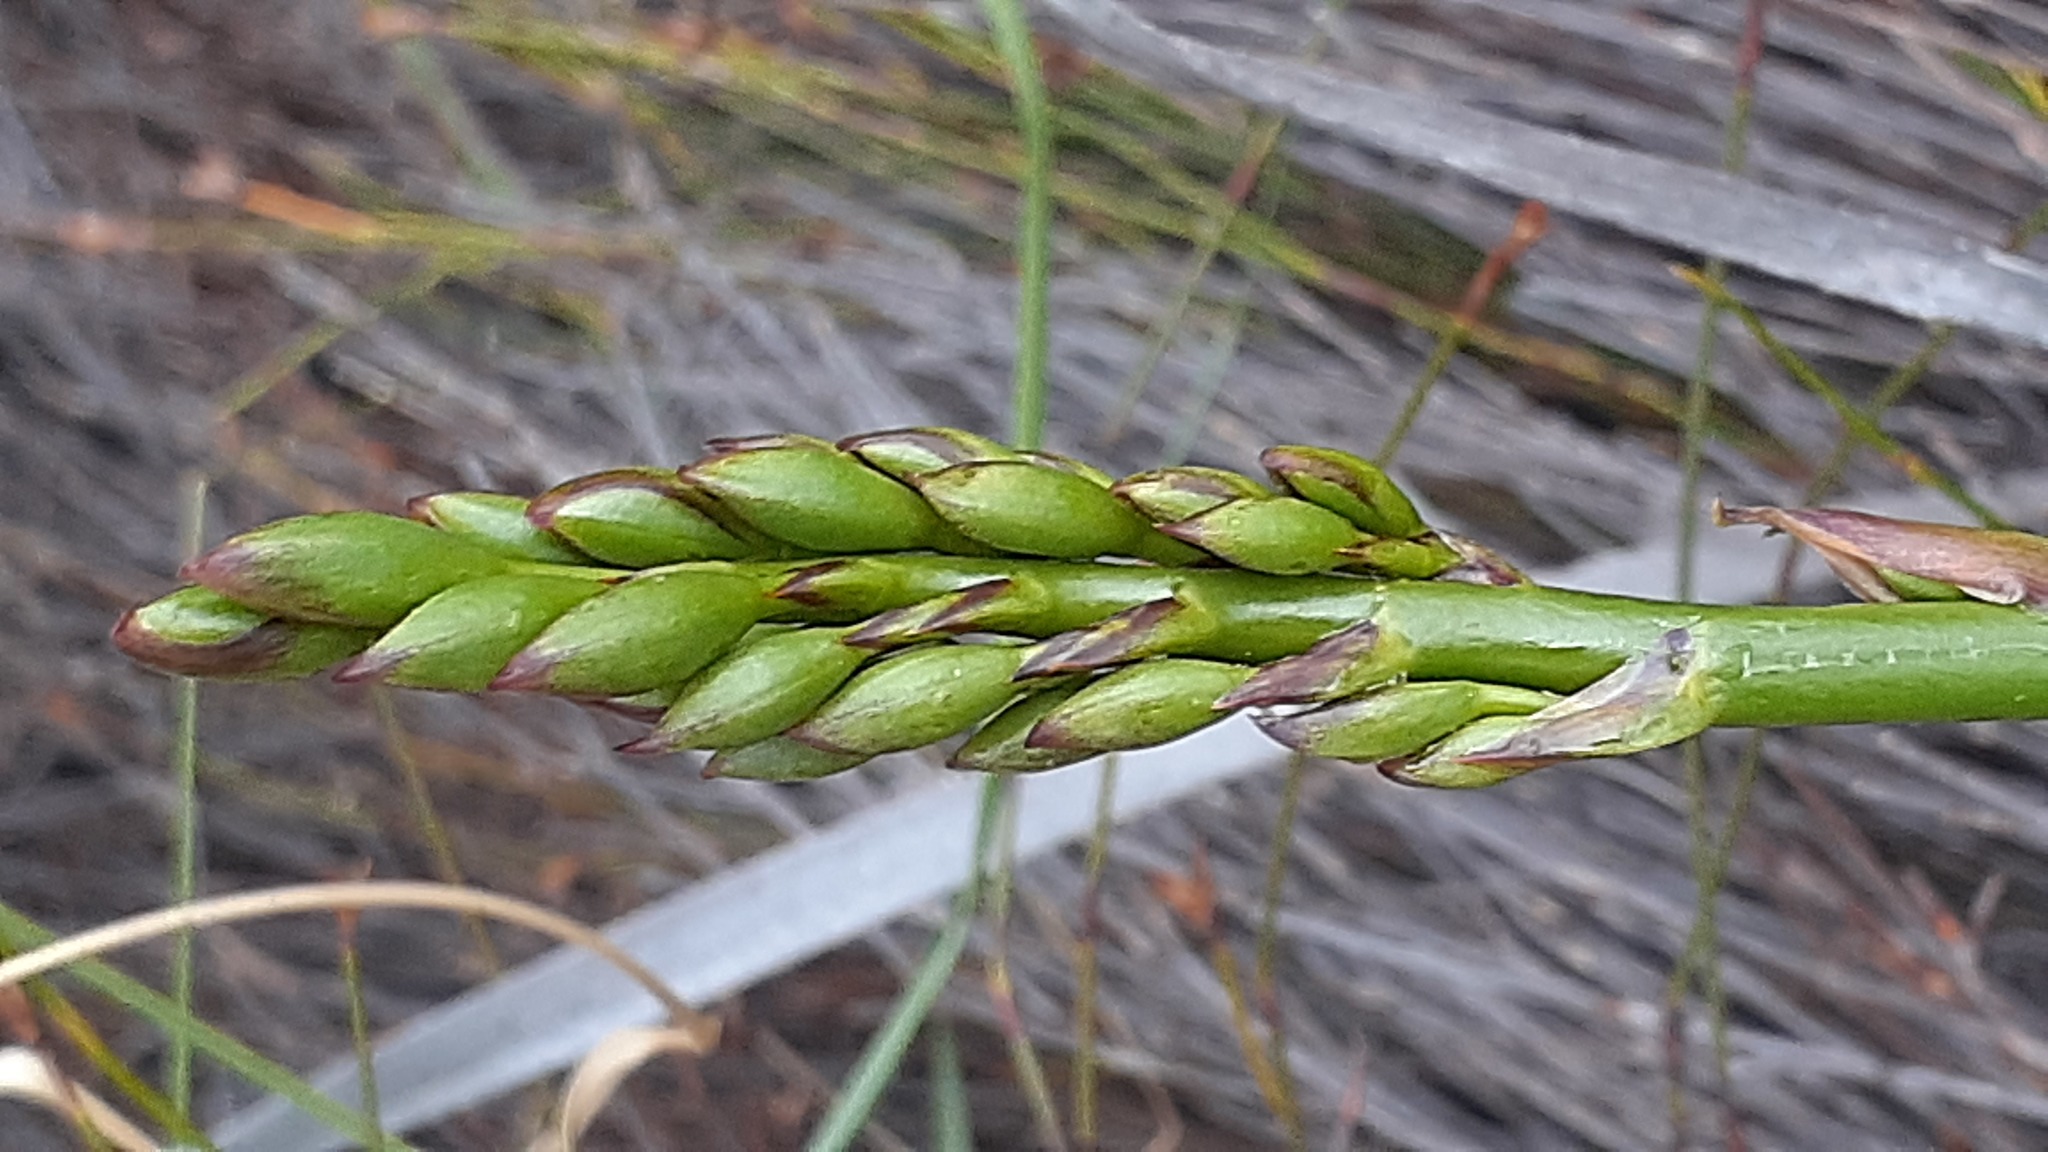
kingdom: Plantae
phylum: Tracheophyta
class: Liliopsida
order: Asparagales
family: Iridaceae
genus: Pillansia
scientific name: Pillansia templemannii
